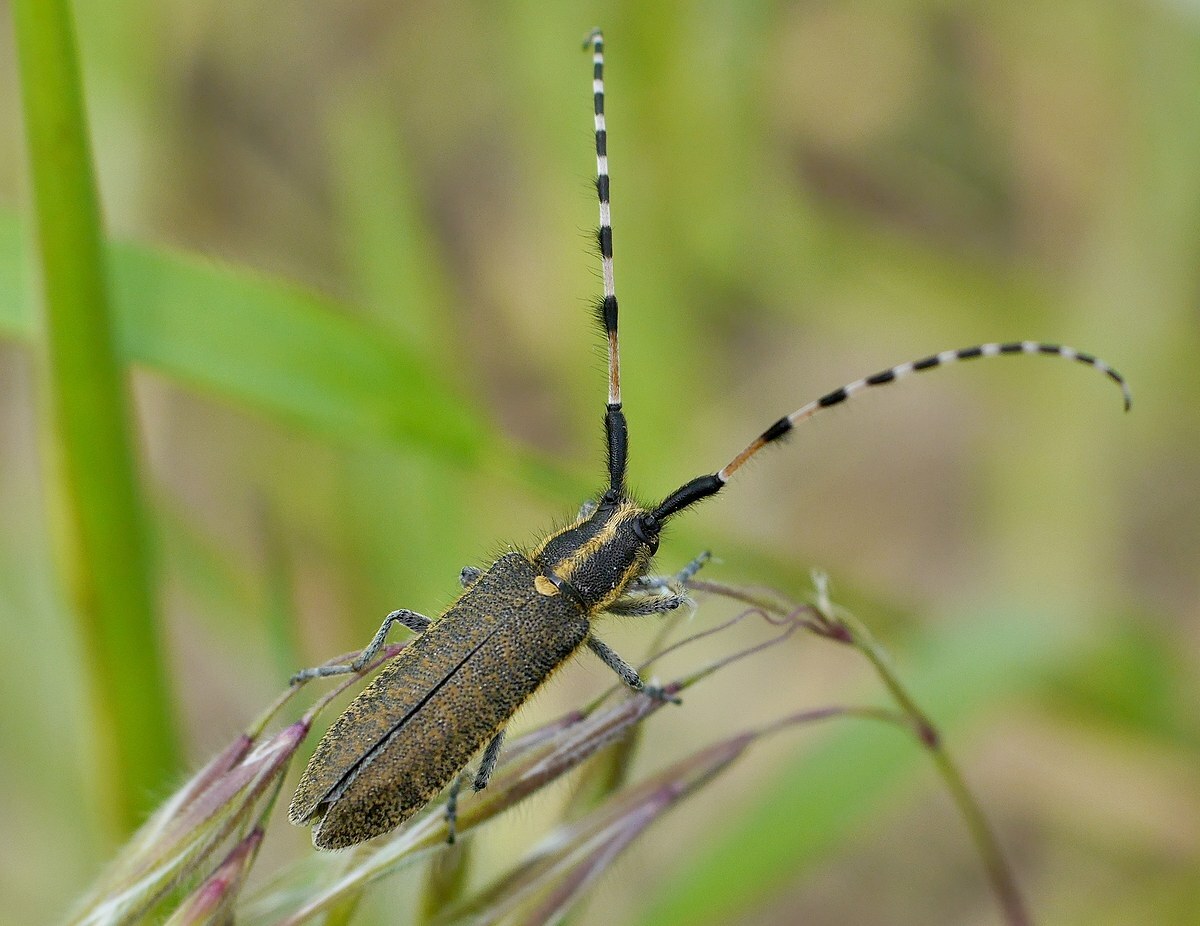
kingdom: Animalia
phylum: Arthropoda
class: Insecta
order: Coleoptera
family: Cerambycidae
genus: Agapanthia
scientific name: Agapanthia dahlii
